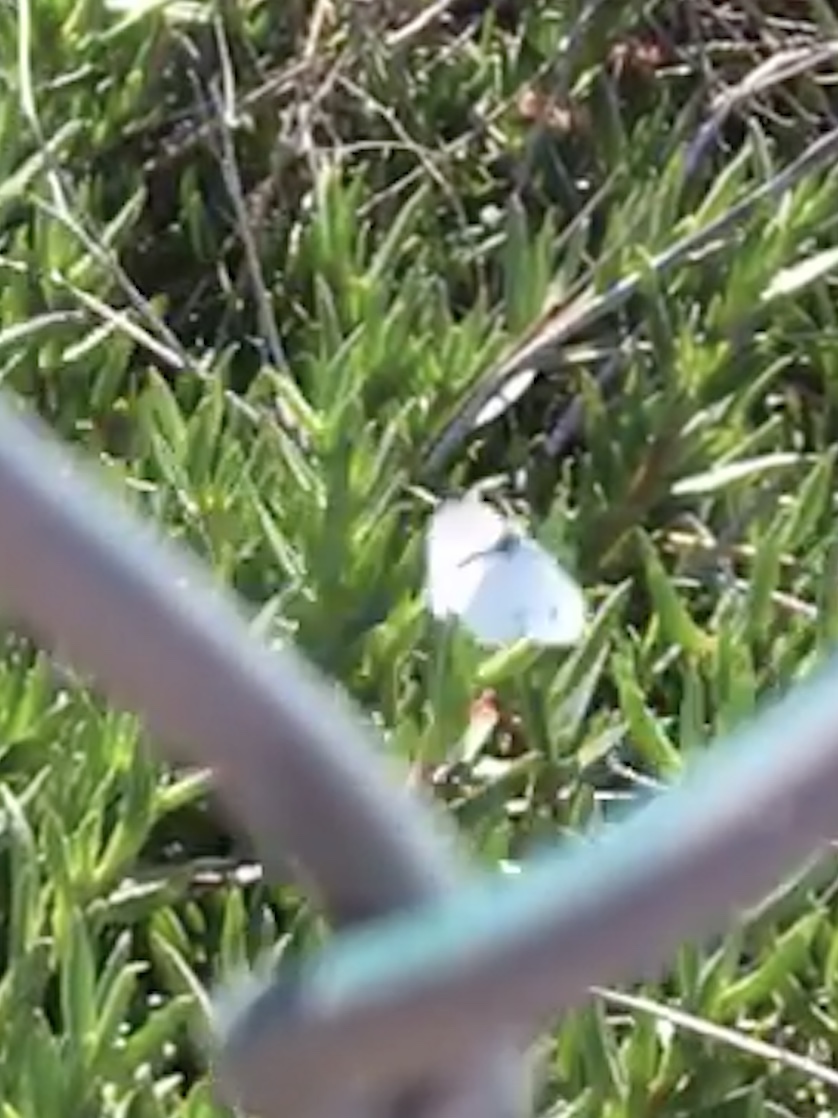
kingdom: Animalia
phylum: Arthropoda
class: Insecta
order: Lepidoptera
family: Pieridae
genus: Pieris
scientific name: Pieris rapae
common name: Small white
